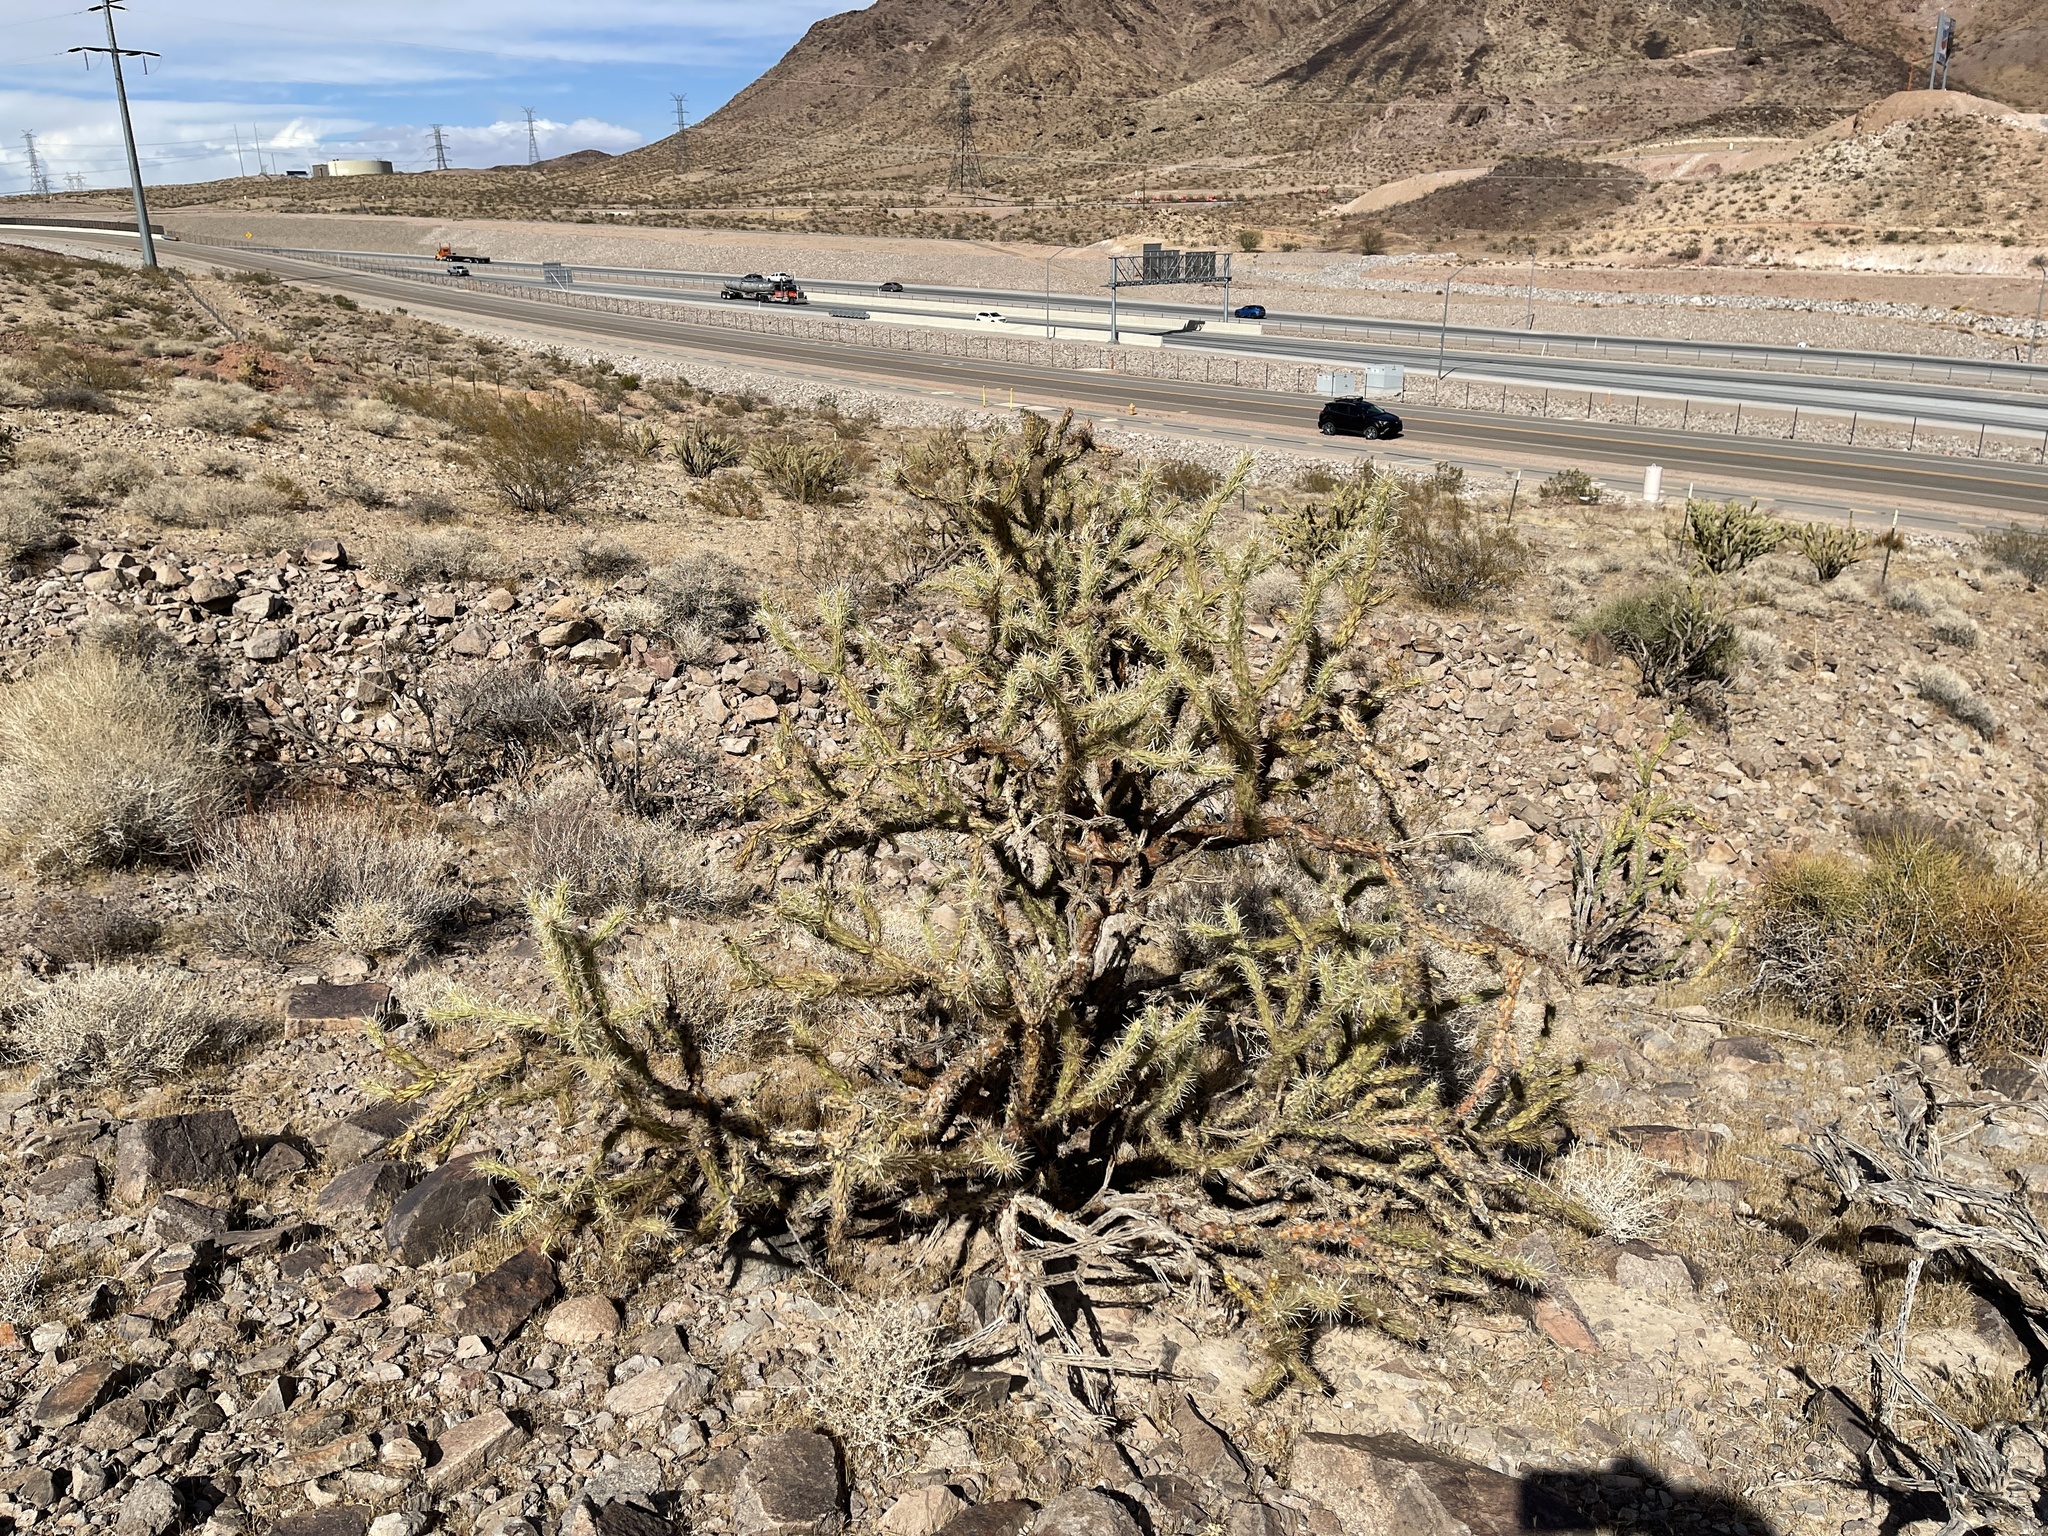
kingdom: Plantae
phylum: Tracheophyta
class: Magnoliopsida
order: Caryophyllales
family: Cactaceae
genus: Cylindropuntia
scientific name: Cylindropuntia acanthocarpa
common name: Buckhorn cholla
